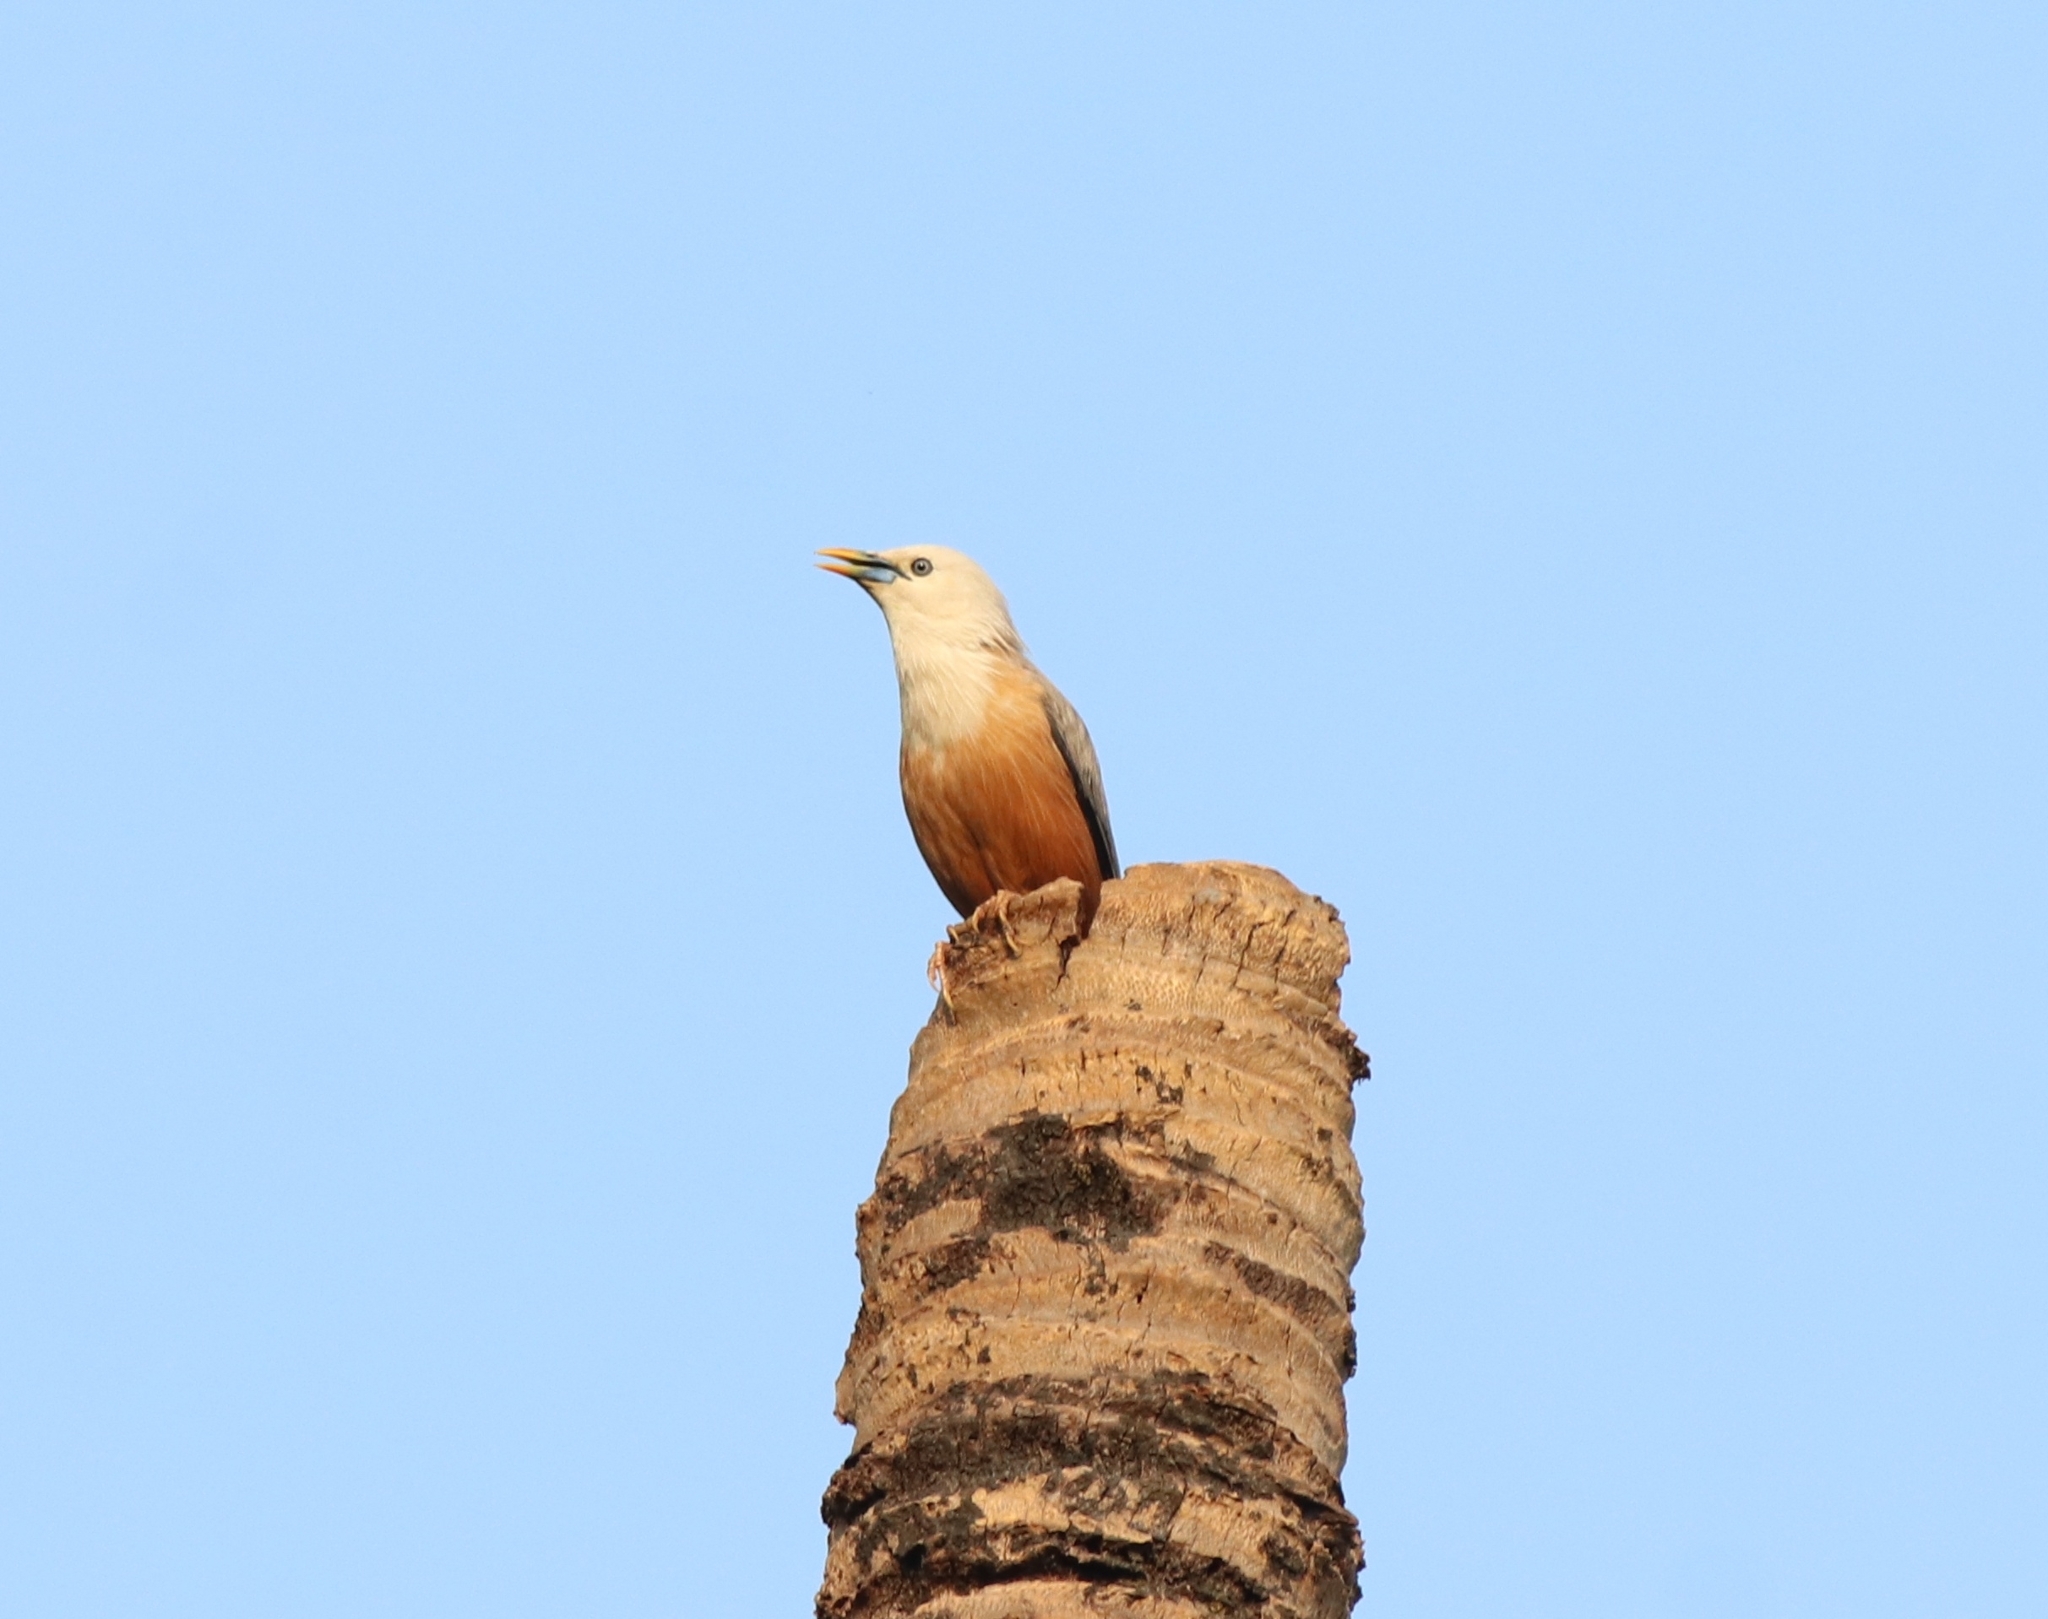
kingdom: Animalia
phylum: Chordata
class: Aves
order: Passeriformes
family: Sturnidae
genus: Sturnia
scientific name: Sturnia blythii
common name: Malabar starling
